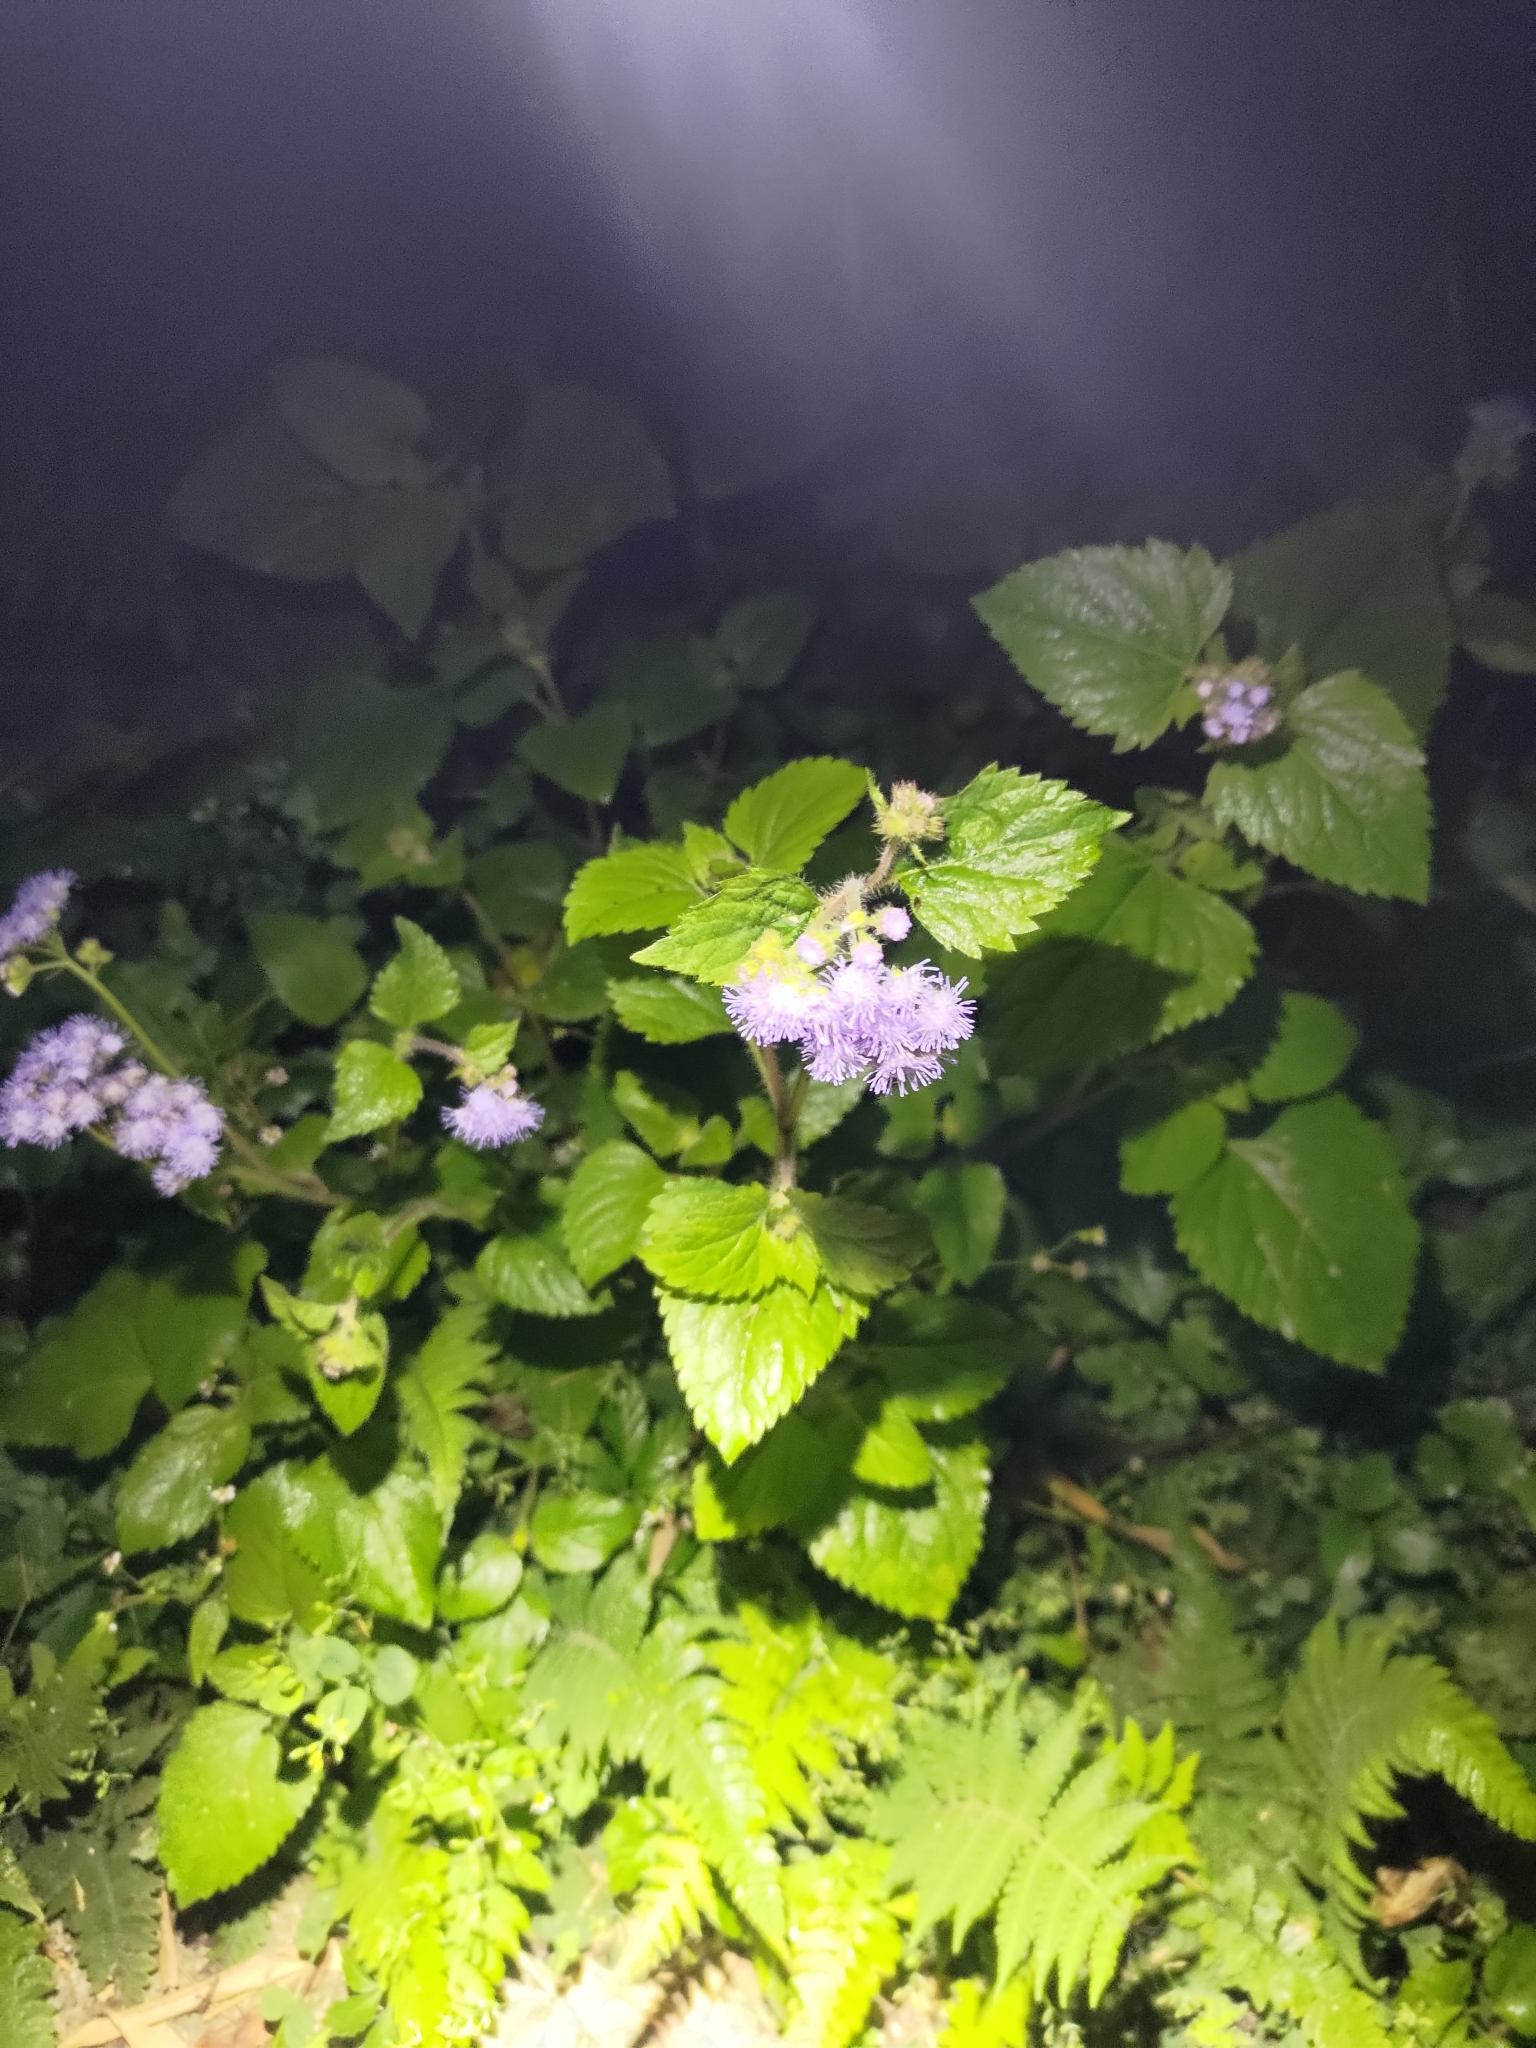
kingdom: Plantae
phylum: Tracheophyta
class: Magnoliopsida
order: Asterales
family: Asteraceae
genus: Ageratum
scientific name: Ageratum houstonianum
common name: Bluemink
